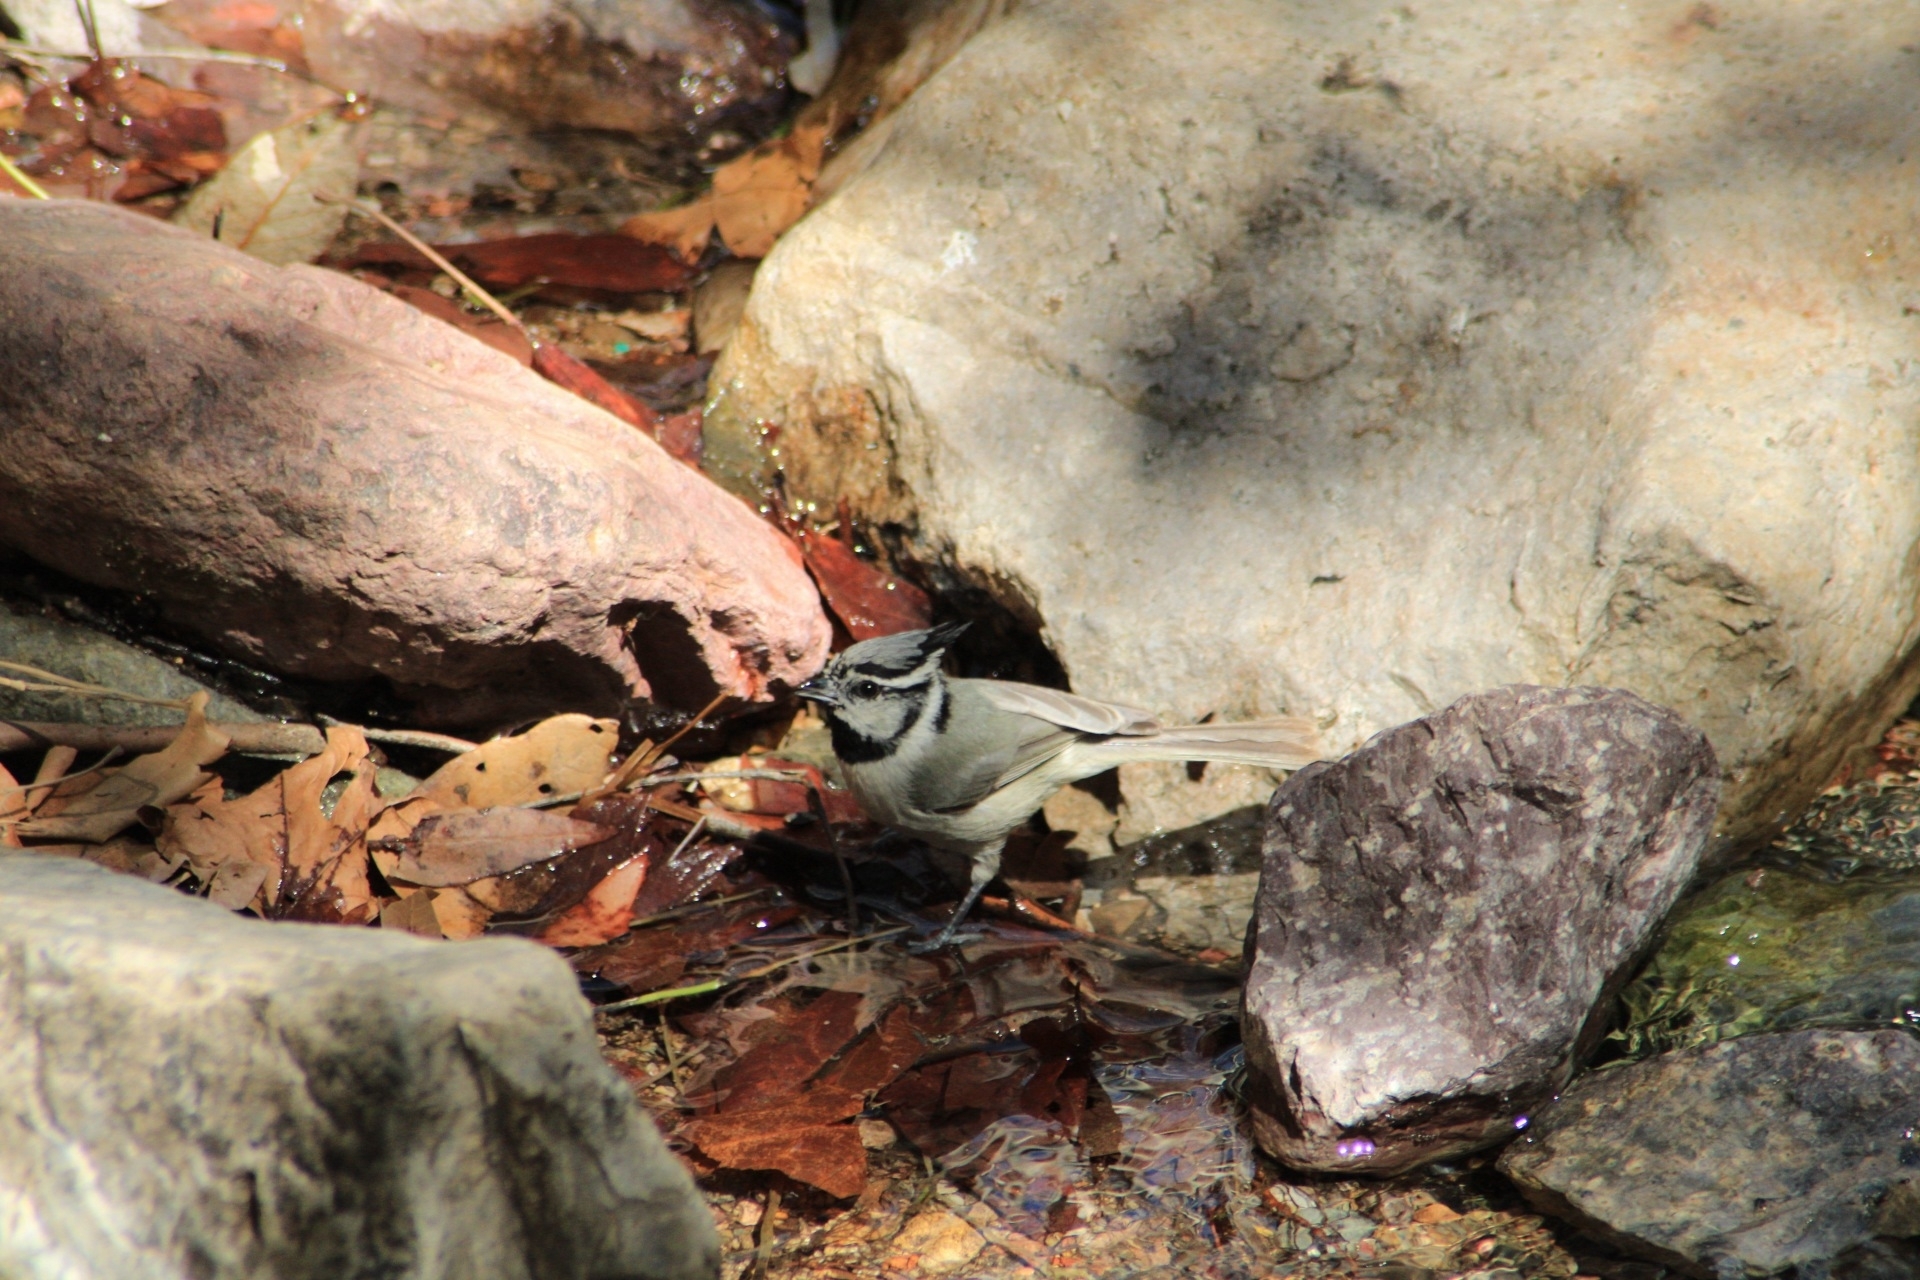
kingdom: Animalia
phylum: Chordata
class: Aves
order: Passeriformes
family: Paridae
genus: Baeolophus
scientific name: Baeolophus wollweberi
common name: Bridled titmouse
